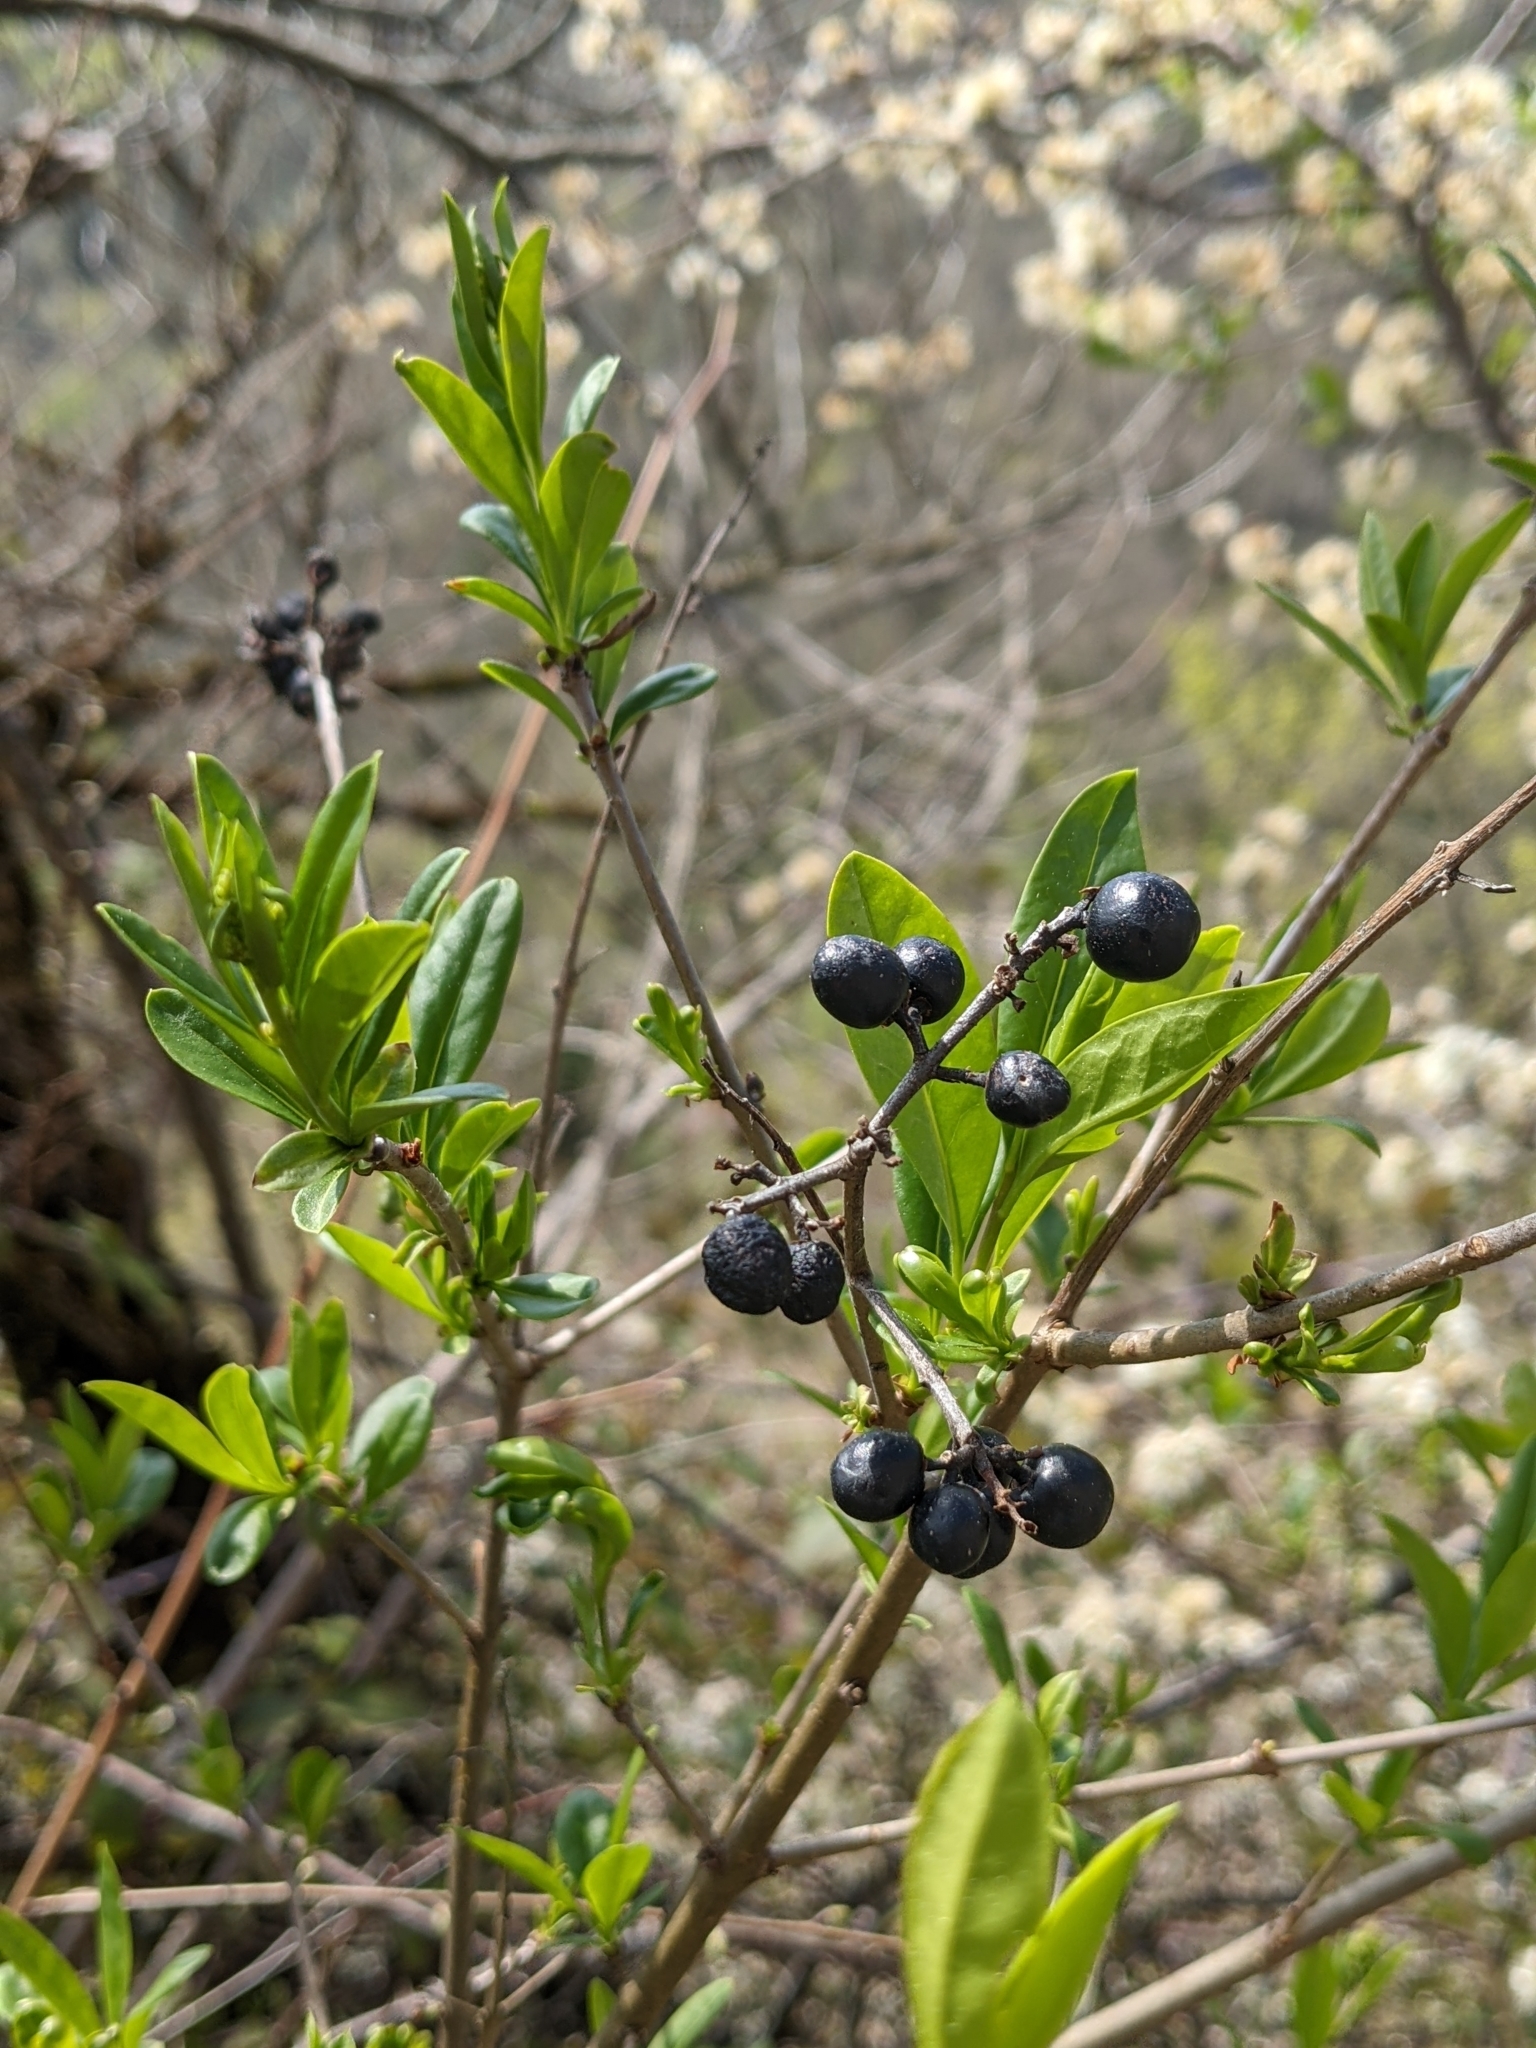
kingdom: Plantae
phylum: Tracheophyta
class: Magnoliopsida
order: Lamiales
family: Oleaceae
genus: Ligustrum
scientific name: Ligustrum vulgare
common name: Wild privet
